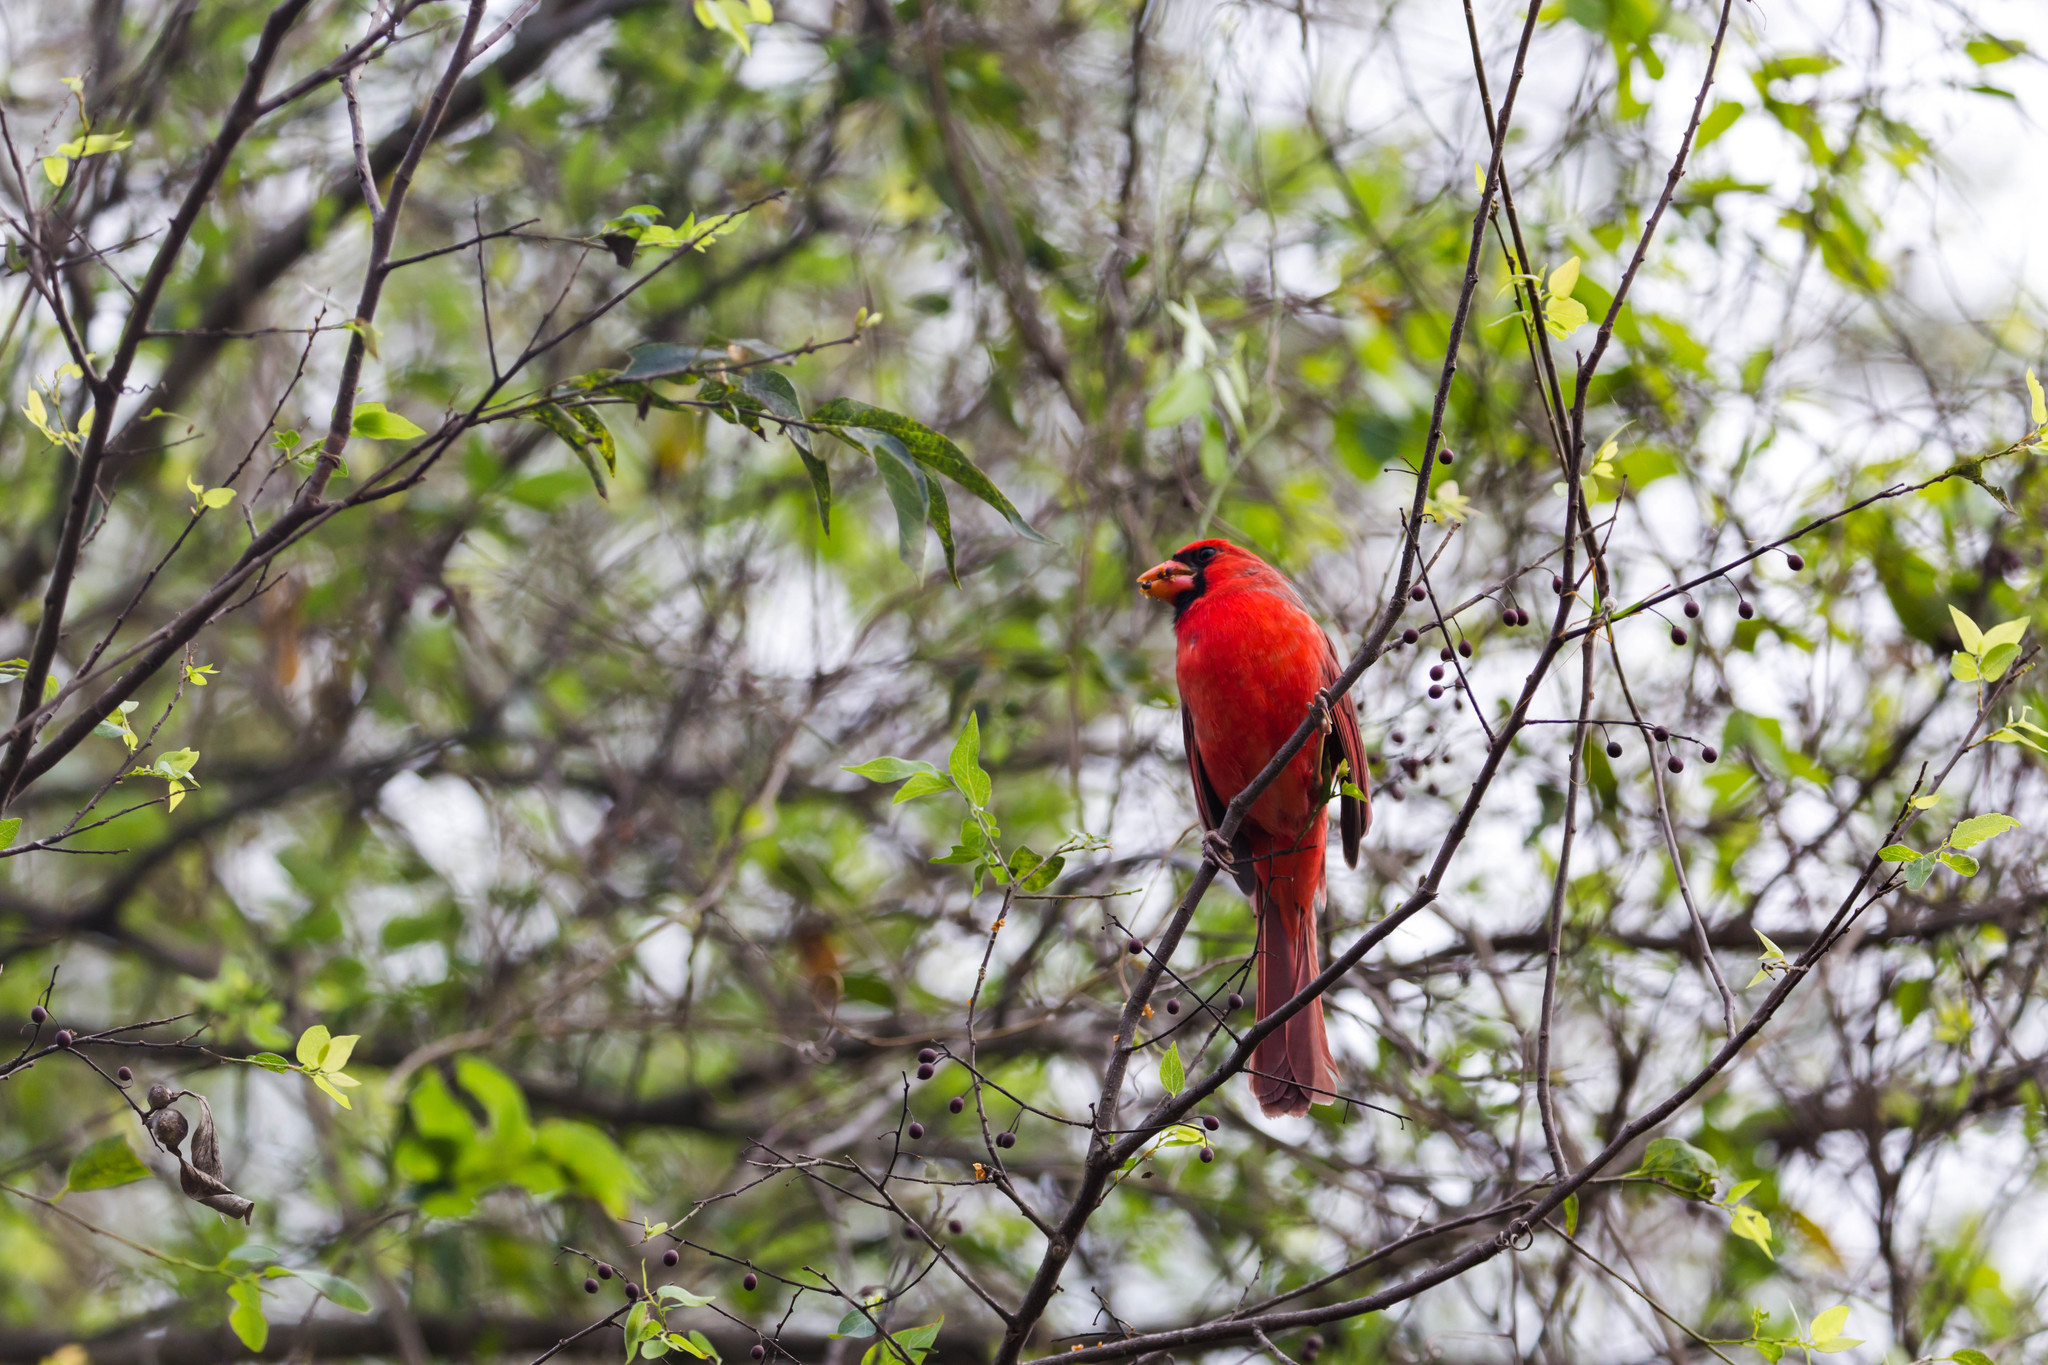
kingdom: Animalia
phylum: Chordata
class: Aves
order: Passeriformes
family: Cardinalidae
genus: Cardinalis
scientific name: Cardinalis cardinalis
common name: Northern cardinal
